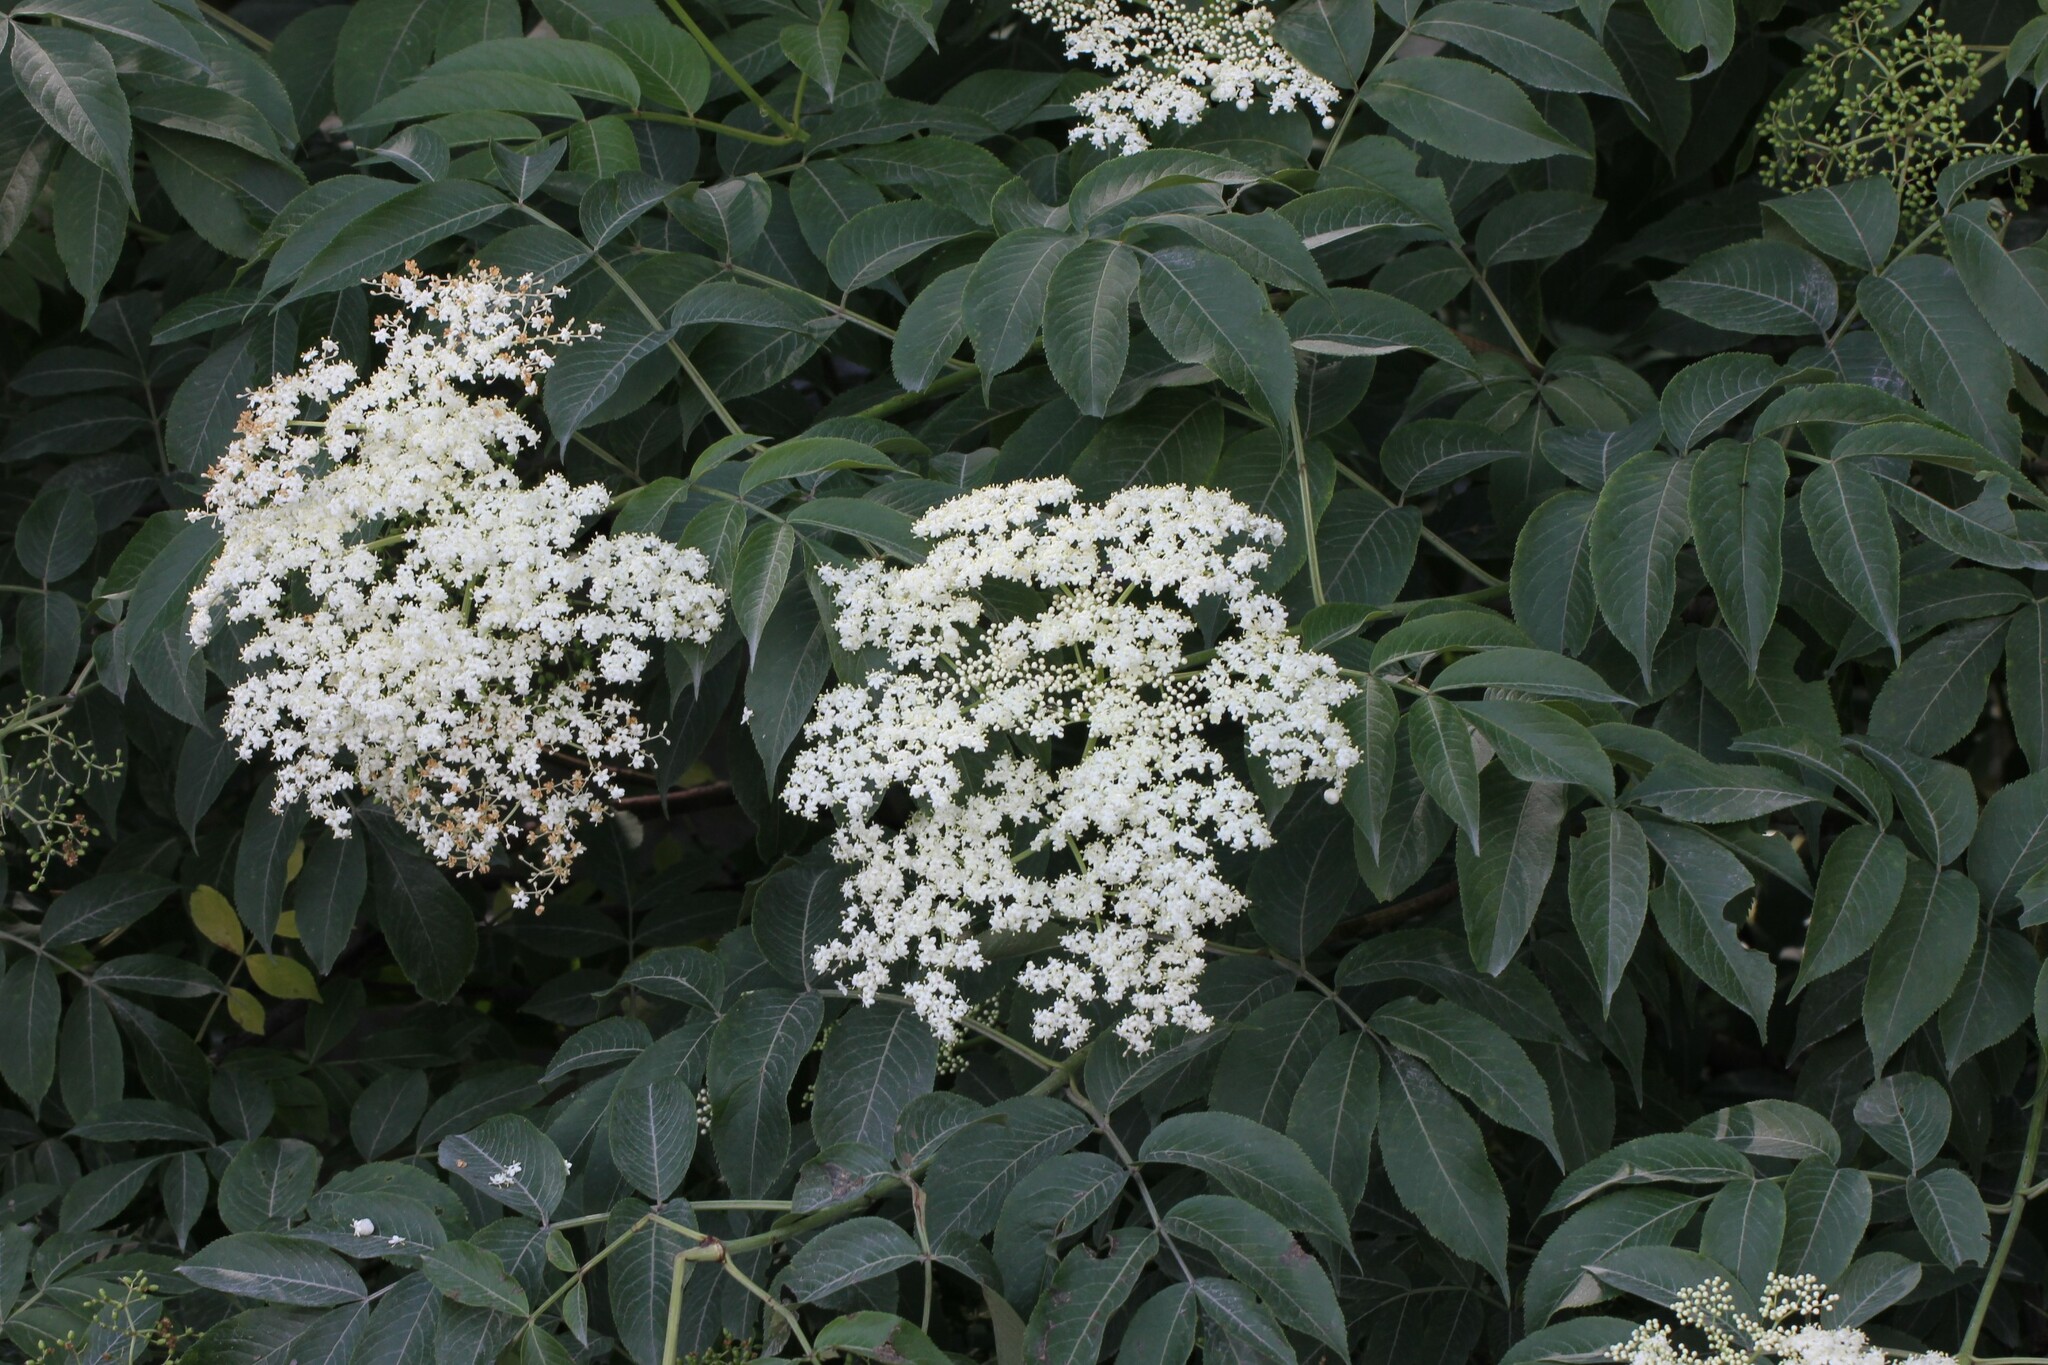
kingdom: Plantae
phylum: Tracheophyta
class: Magnoliopsida
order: Dipsacales
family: Viburnaceae
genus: Sambucus
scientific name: Sambucus canadensis
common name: American elder
